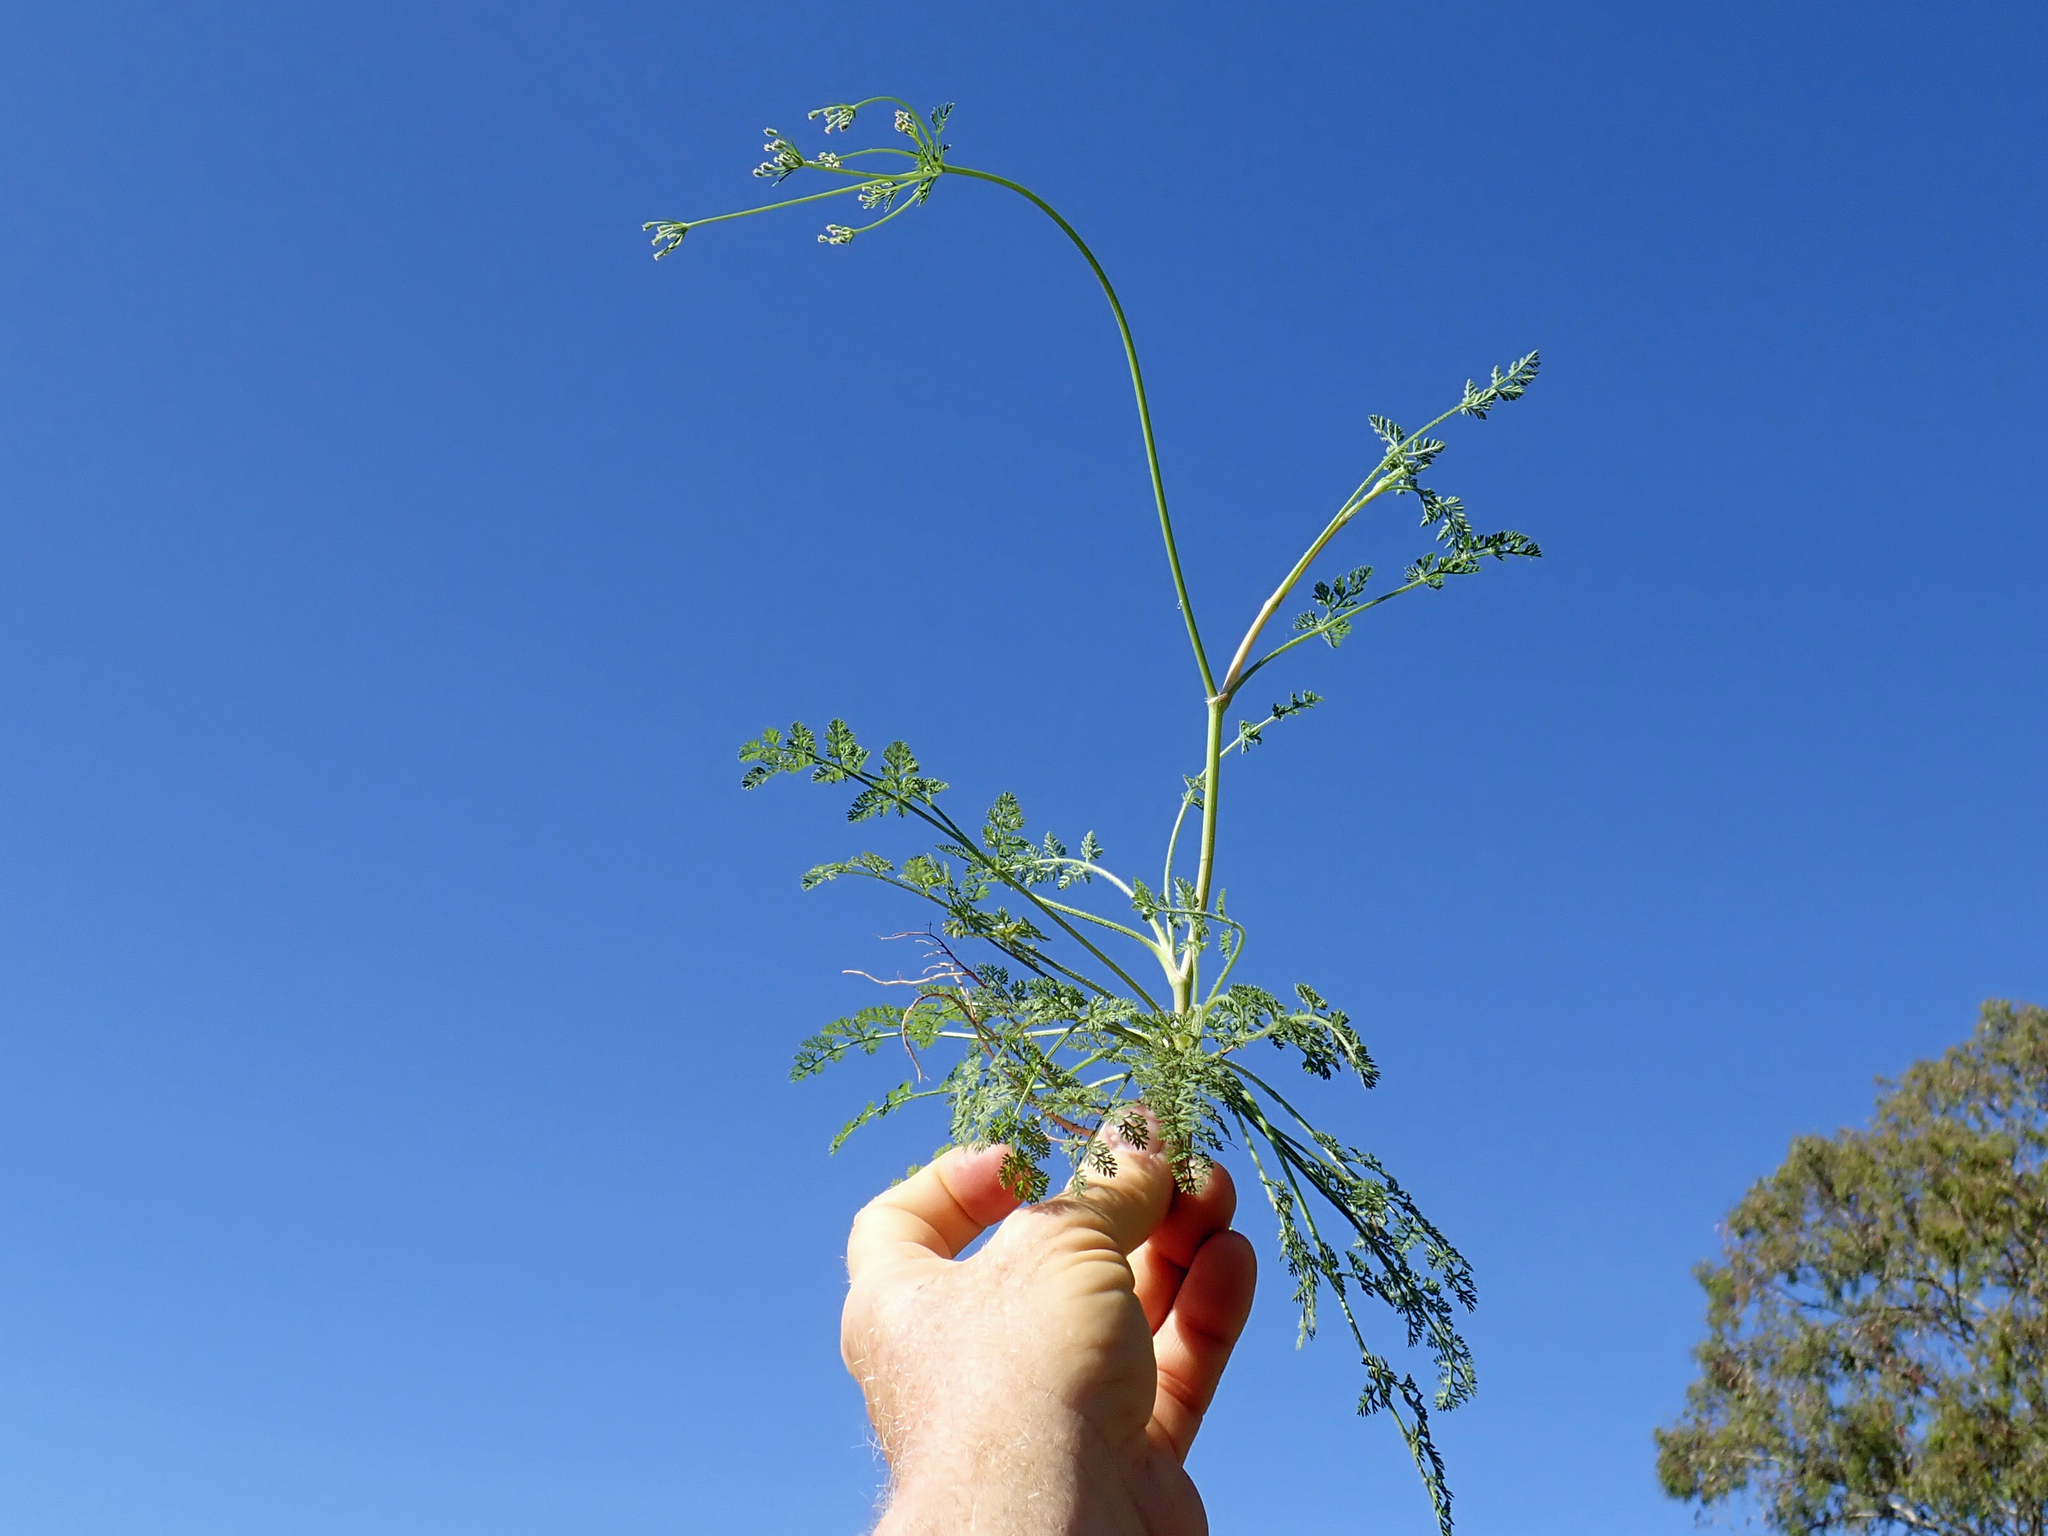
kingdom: Plantae
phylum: Tracheophyta
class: Magnoliopsida
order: Apiales
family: Apiaceae
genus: Daucus
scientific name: Daucus glochidiatus
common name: Australian carrot
